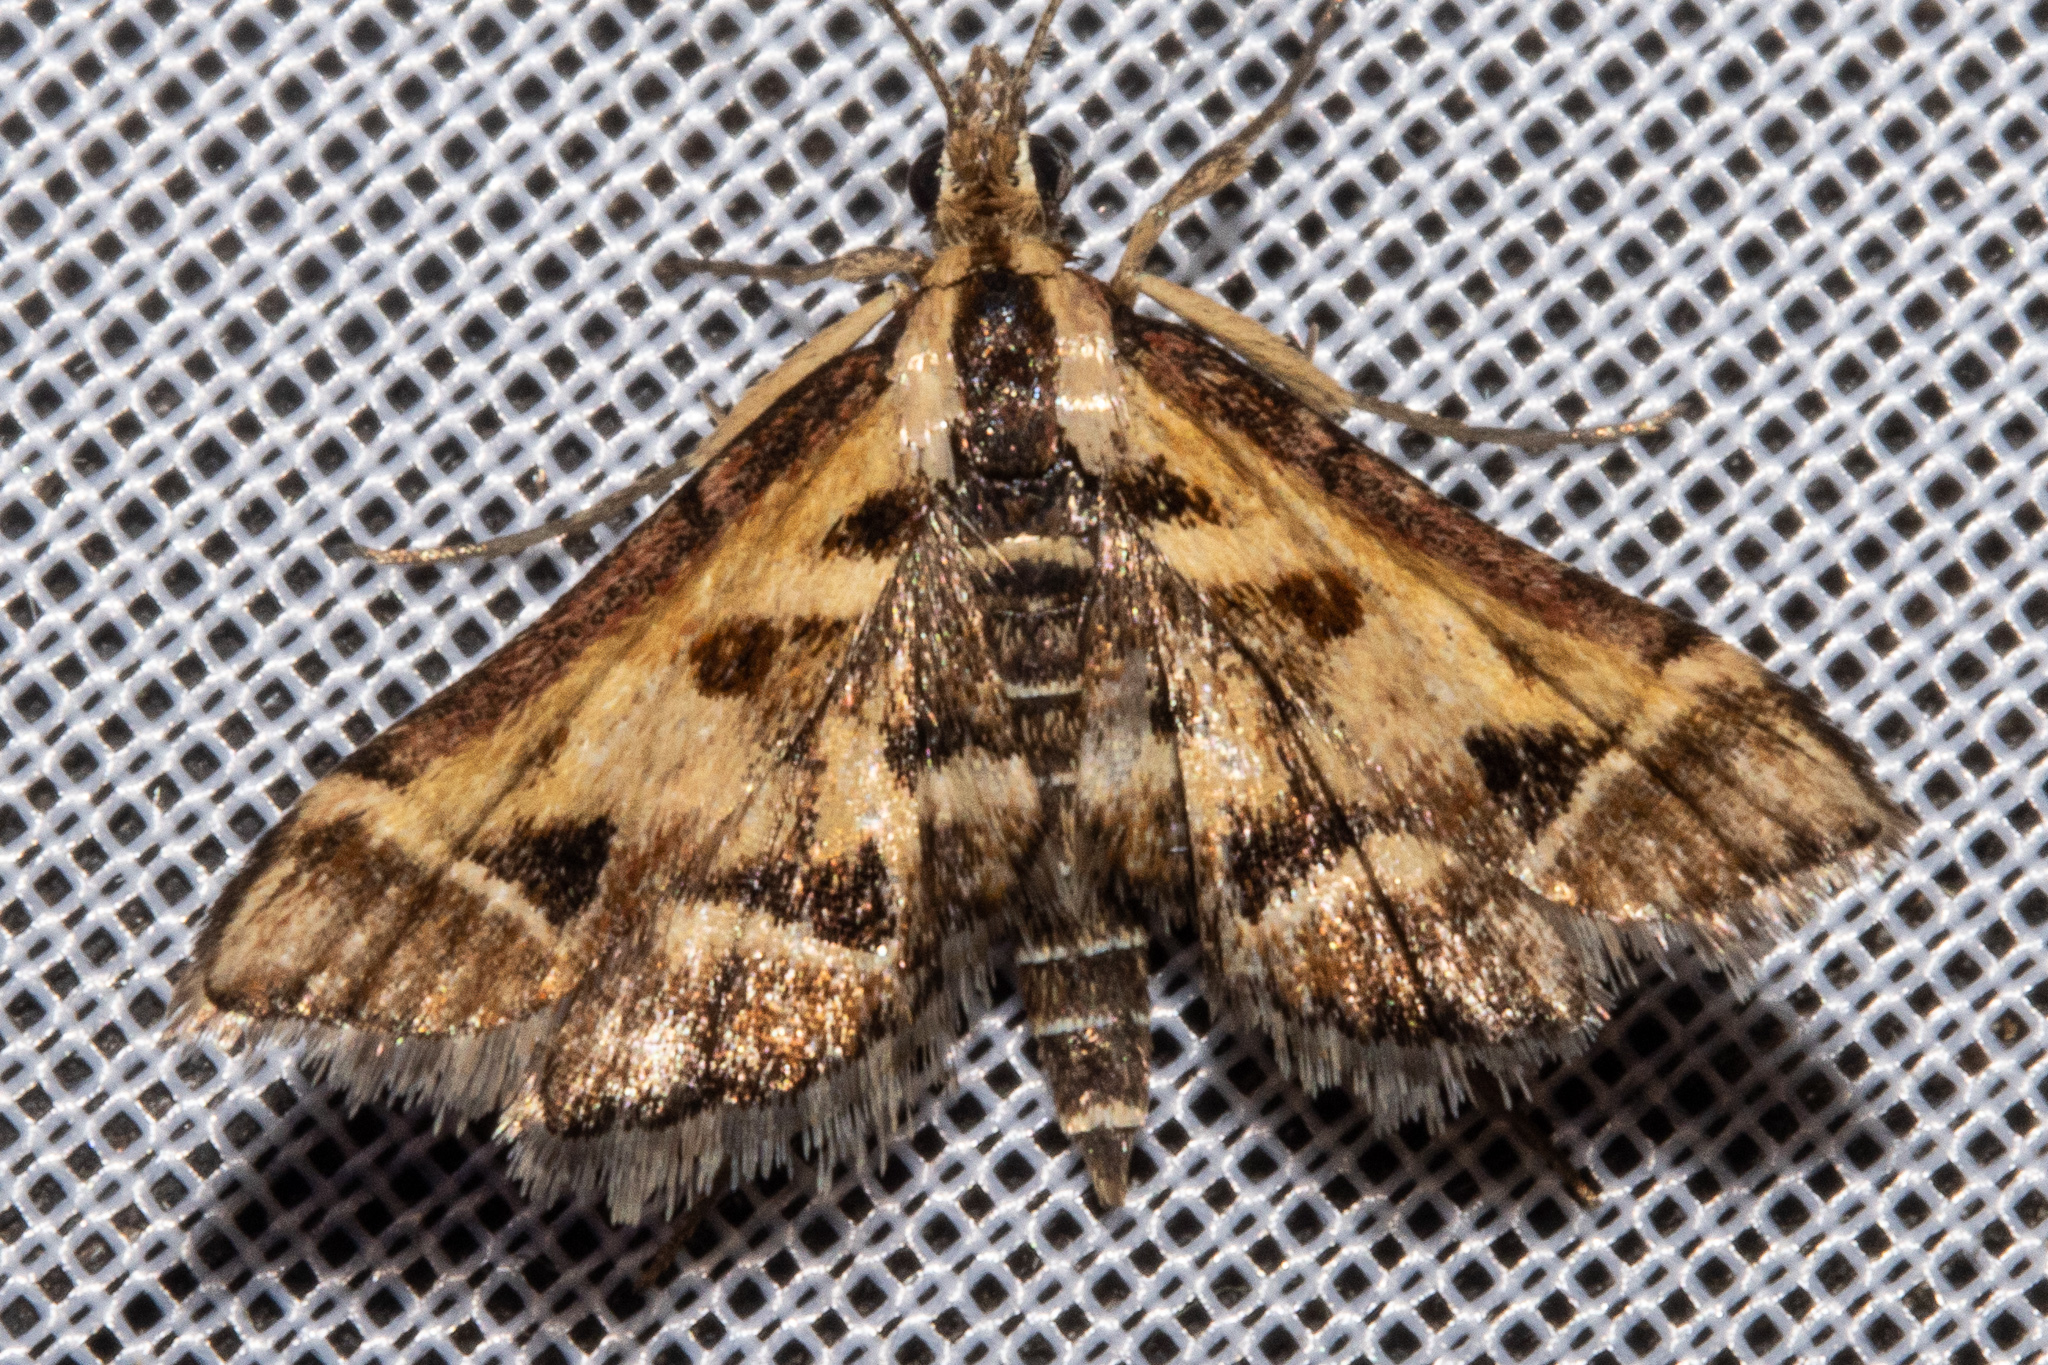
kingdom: Animalia
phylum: Arthropoda
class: Insecta
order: Lepidoptera
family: Crambidae
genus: Diasemia
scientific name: Diasemia grammalis
